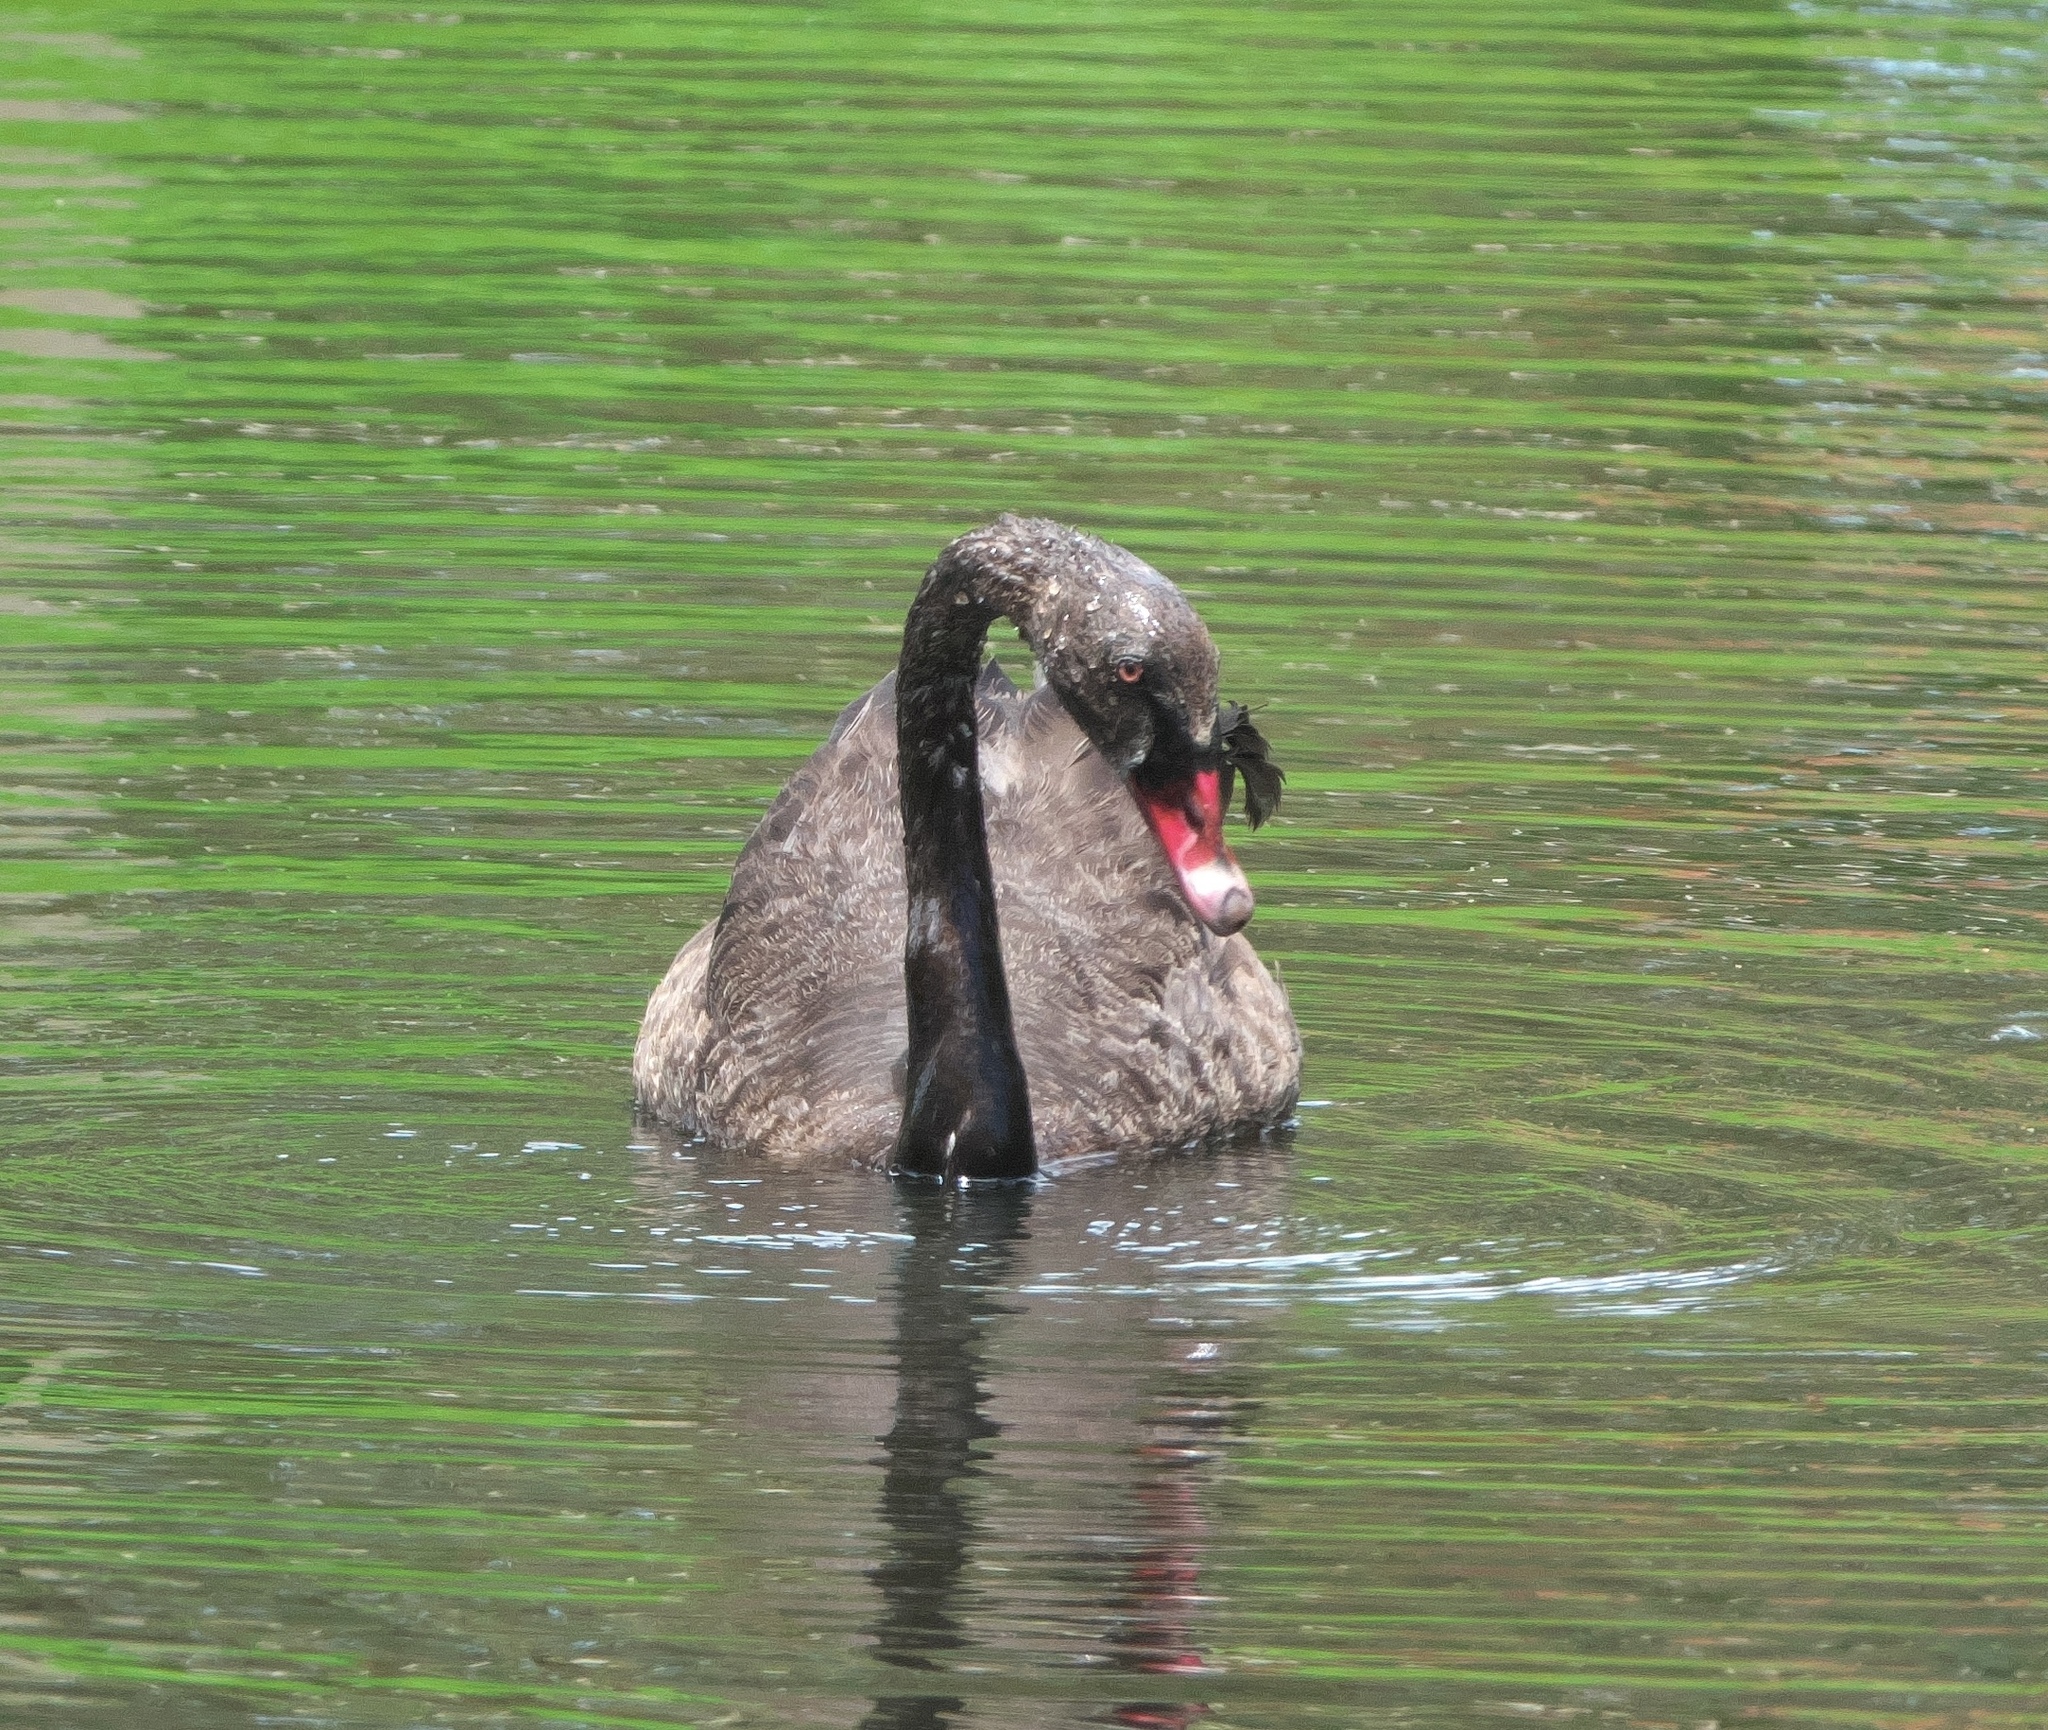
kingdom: Animalia
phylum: Chordata
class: Aves
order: Anseriformes
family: Anatidae
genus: Cygnus
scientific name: Cygnus atratus
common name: Black swan
